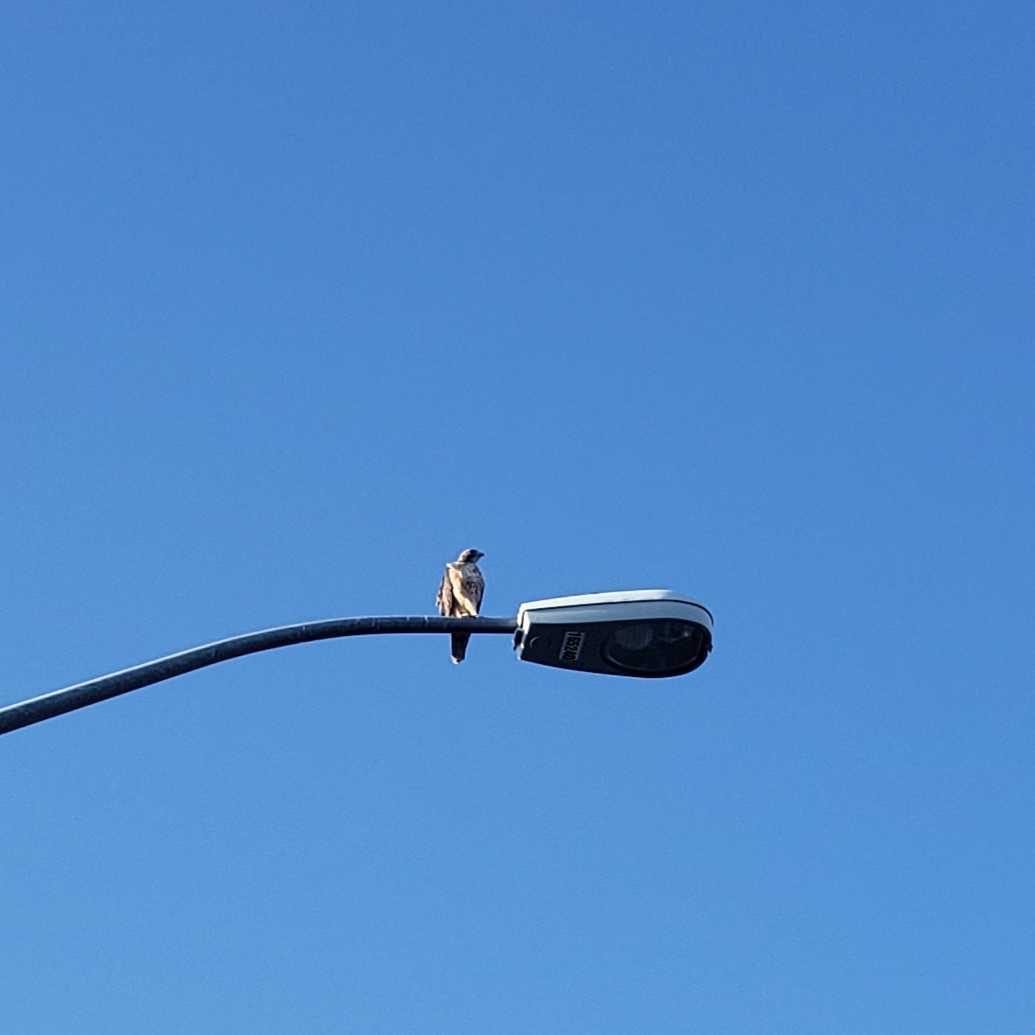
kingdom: Animalia
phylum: Chordata
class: Aves
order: Accipitriformes
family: Accipitridae
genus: Buteo
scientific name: Buteo jamaicensis
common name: Red-tailed hawk
